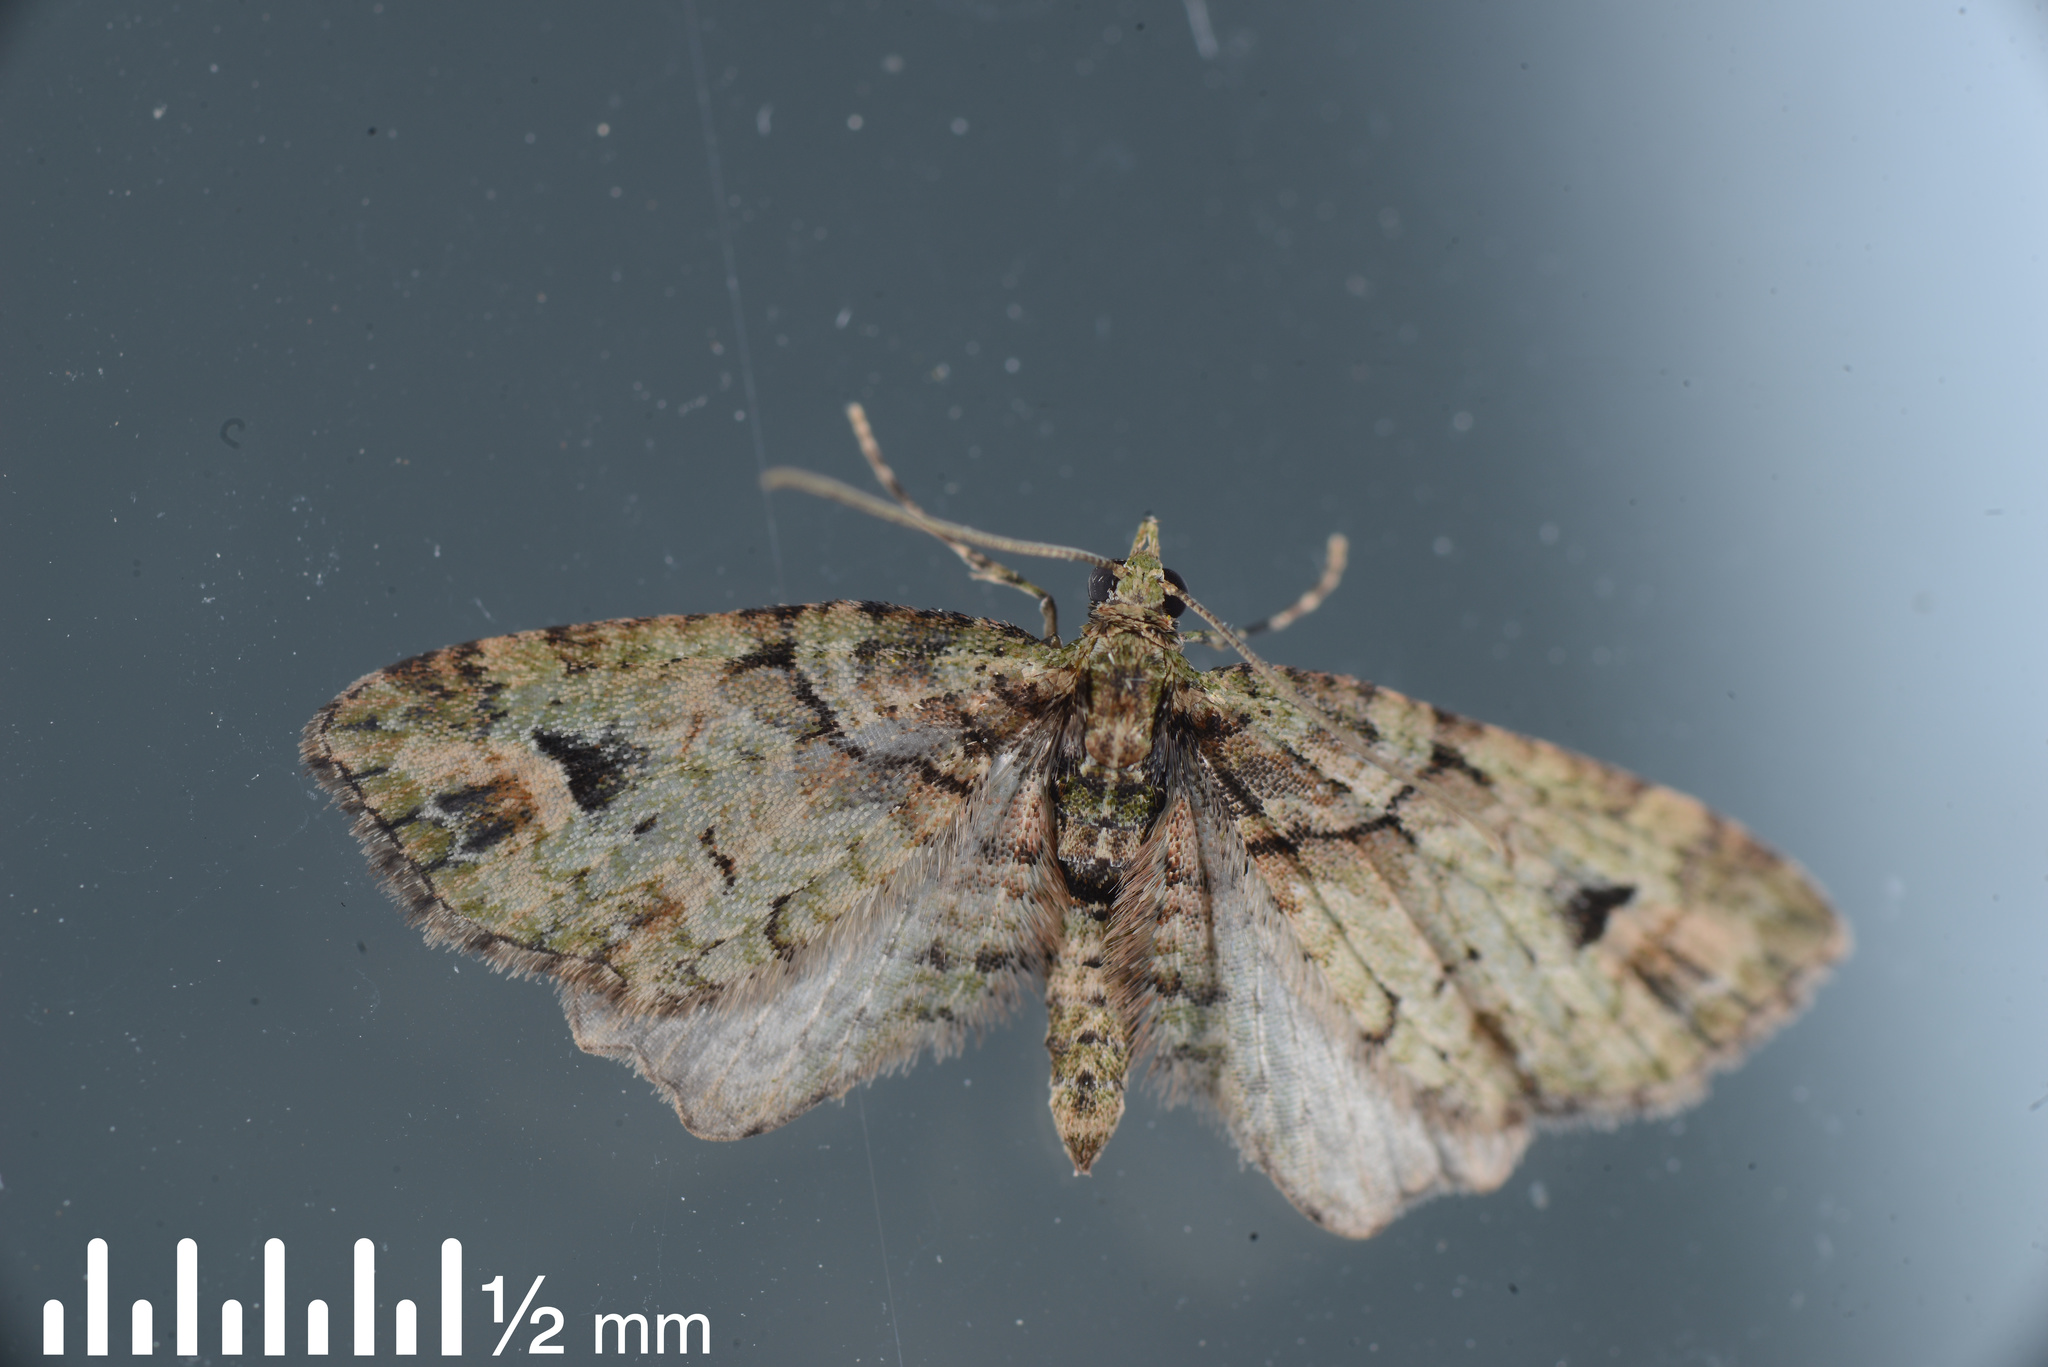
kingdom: Animalia
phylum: Arthropoda
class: Insecta
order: Lepidoptera
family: Geometridae
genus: Idaea
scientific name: Idaea mutanda
